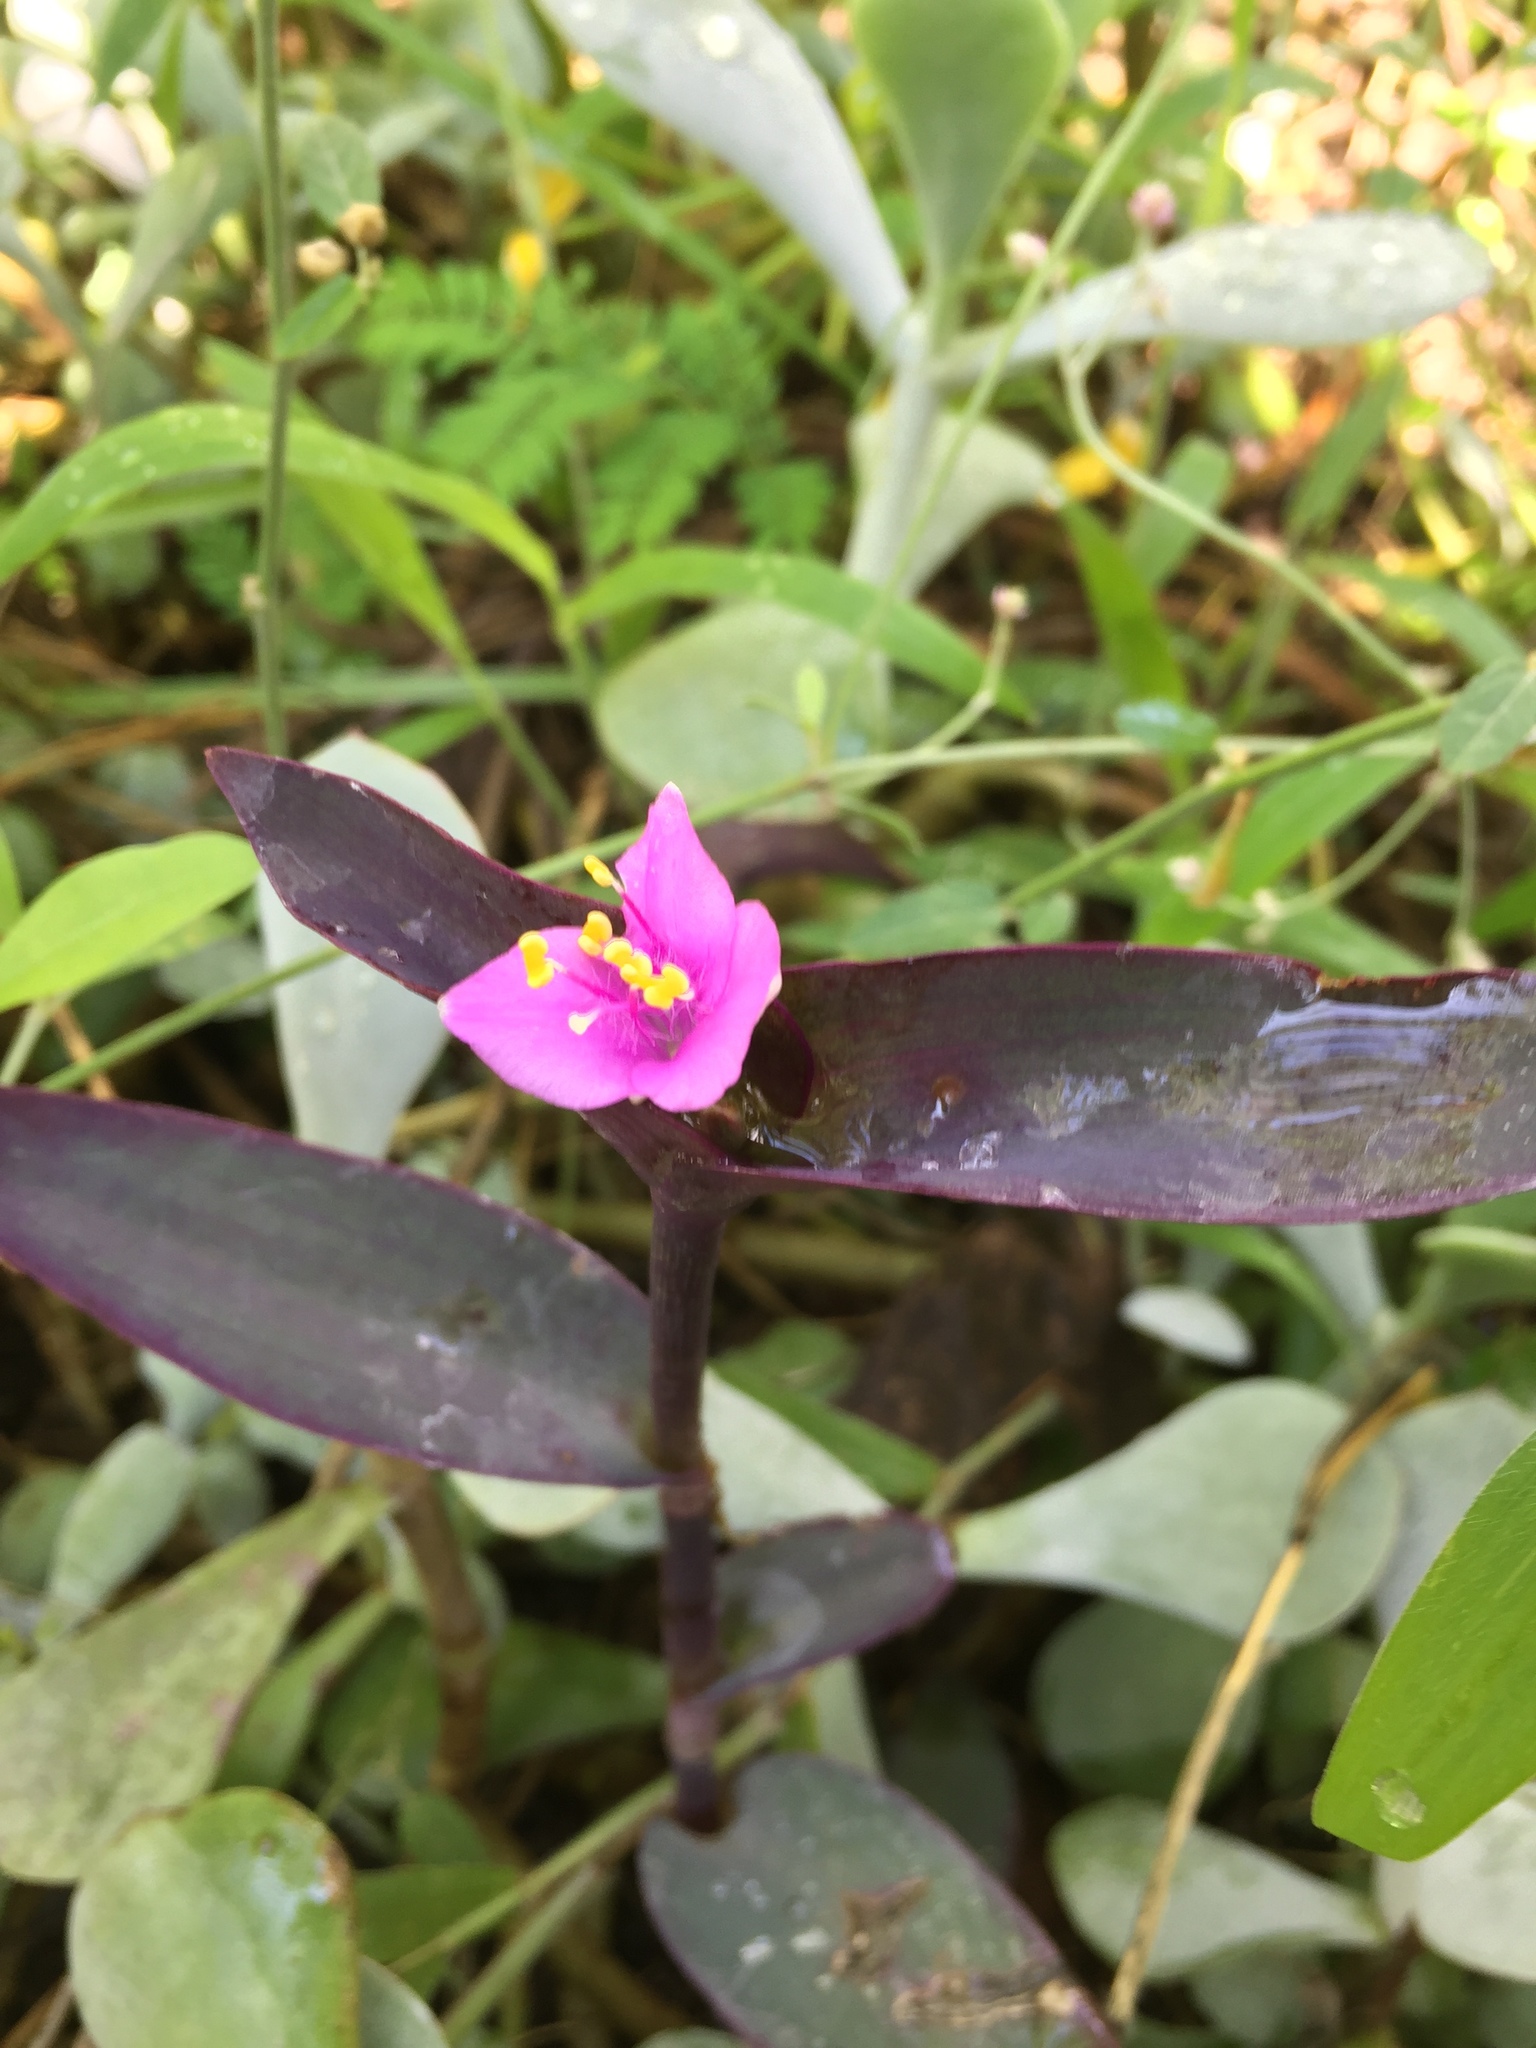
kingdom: Plantae
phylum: Tracheophyta
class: Liliopsida
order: Commelinales
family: Commelinaceae
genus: Tradescantia
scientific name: Tradescantia pallida
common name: Purpleheart
